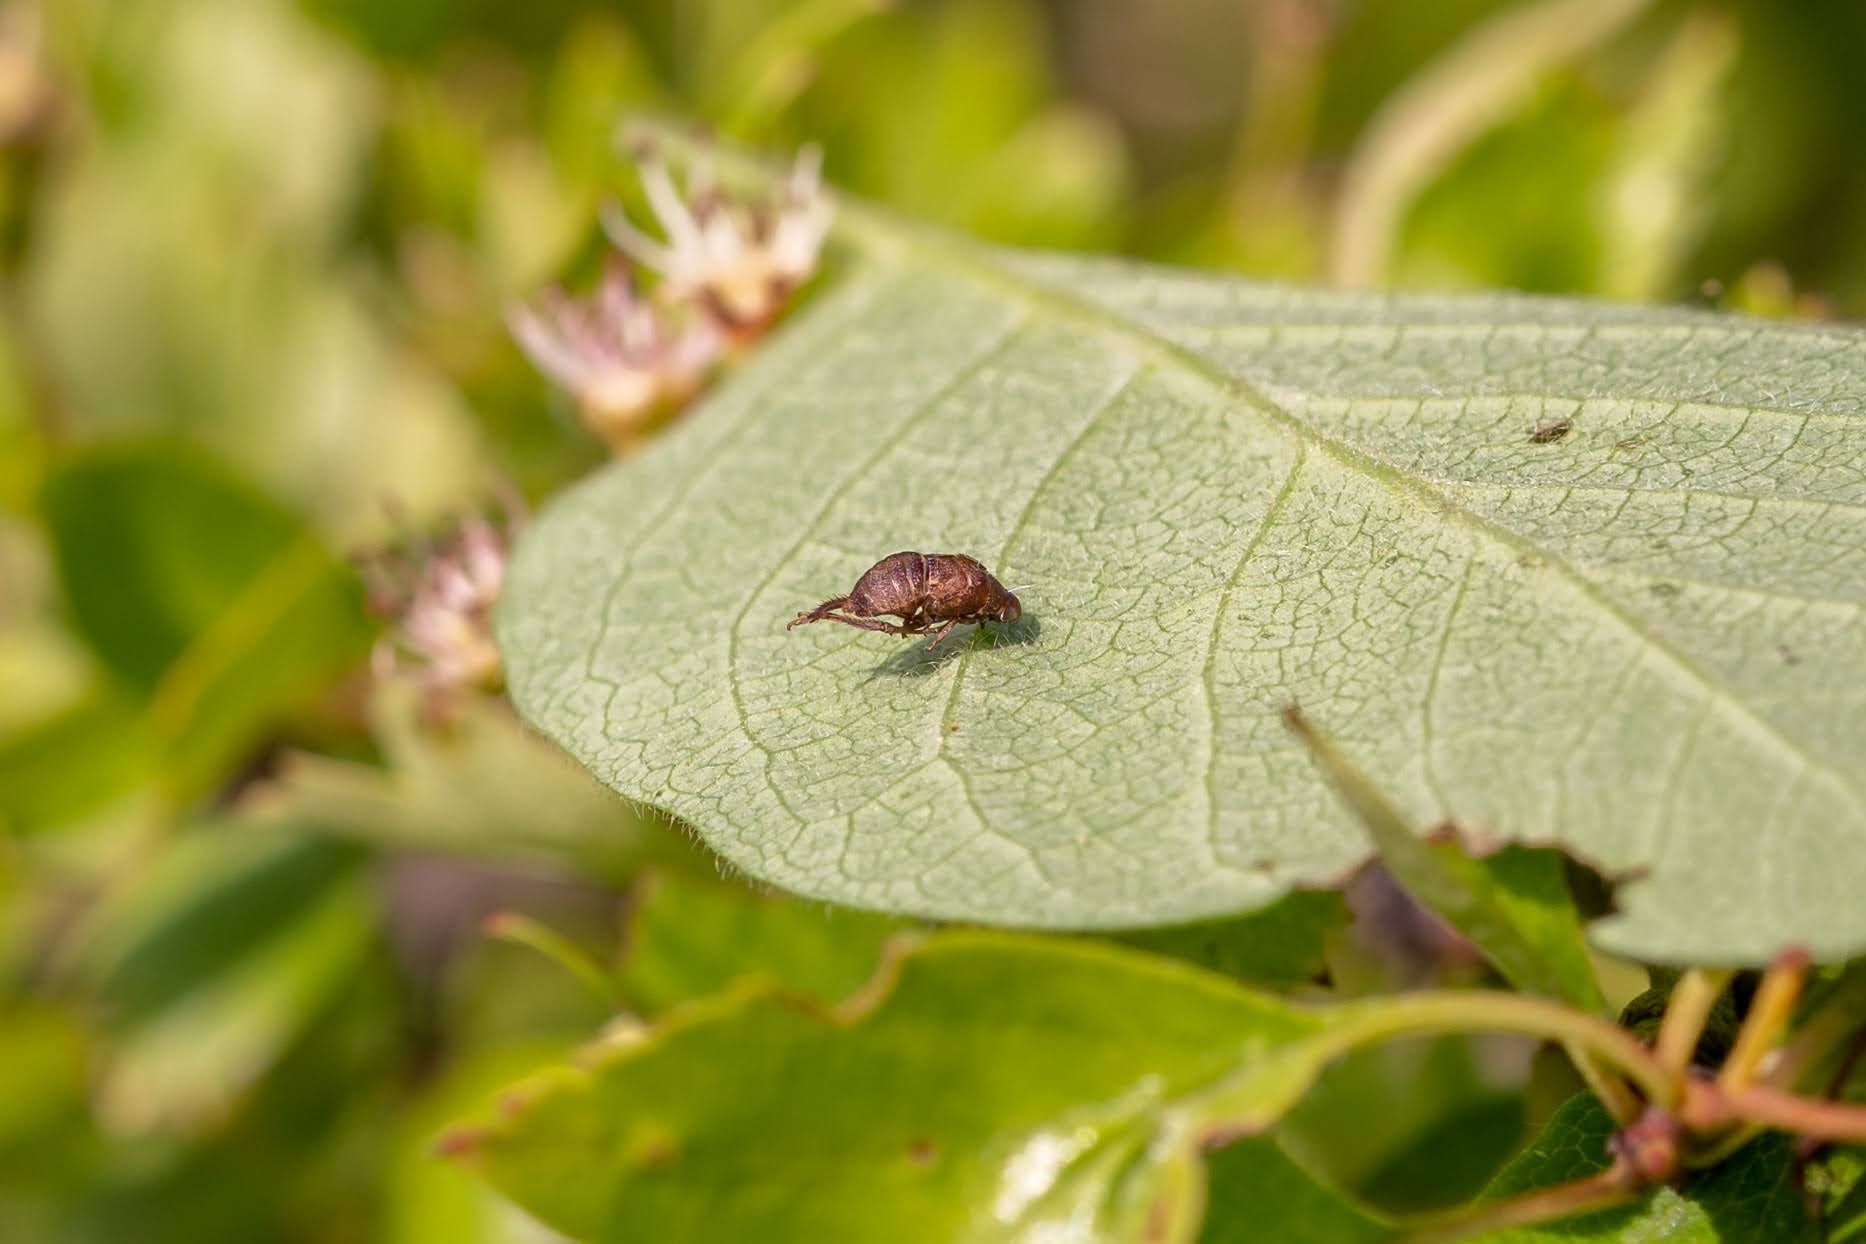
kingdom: Animalia
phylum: Arthropoda
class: Insecta
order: Hemiptera
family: Cicadellidae
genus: Penthimia
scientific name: Penthimia nigra
